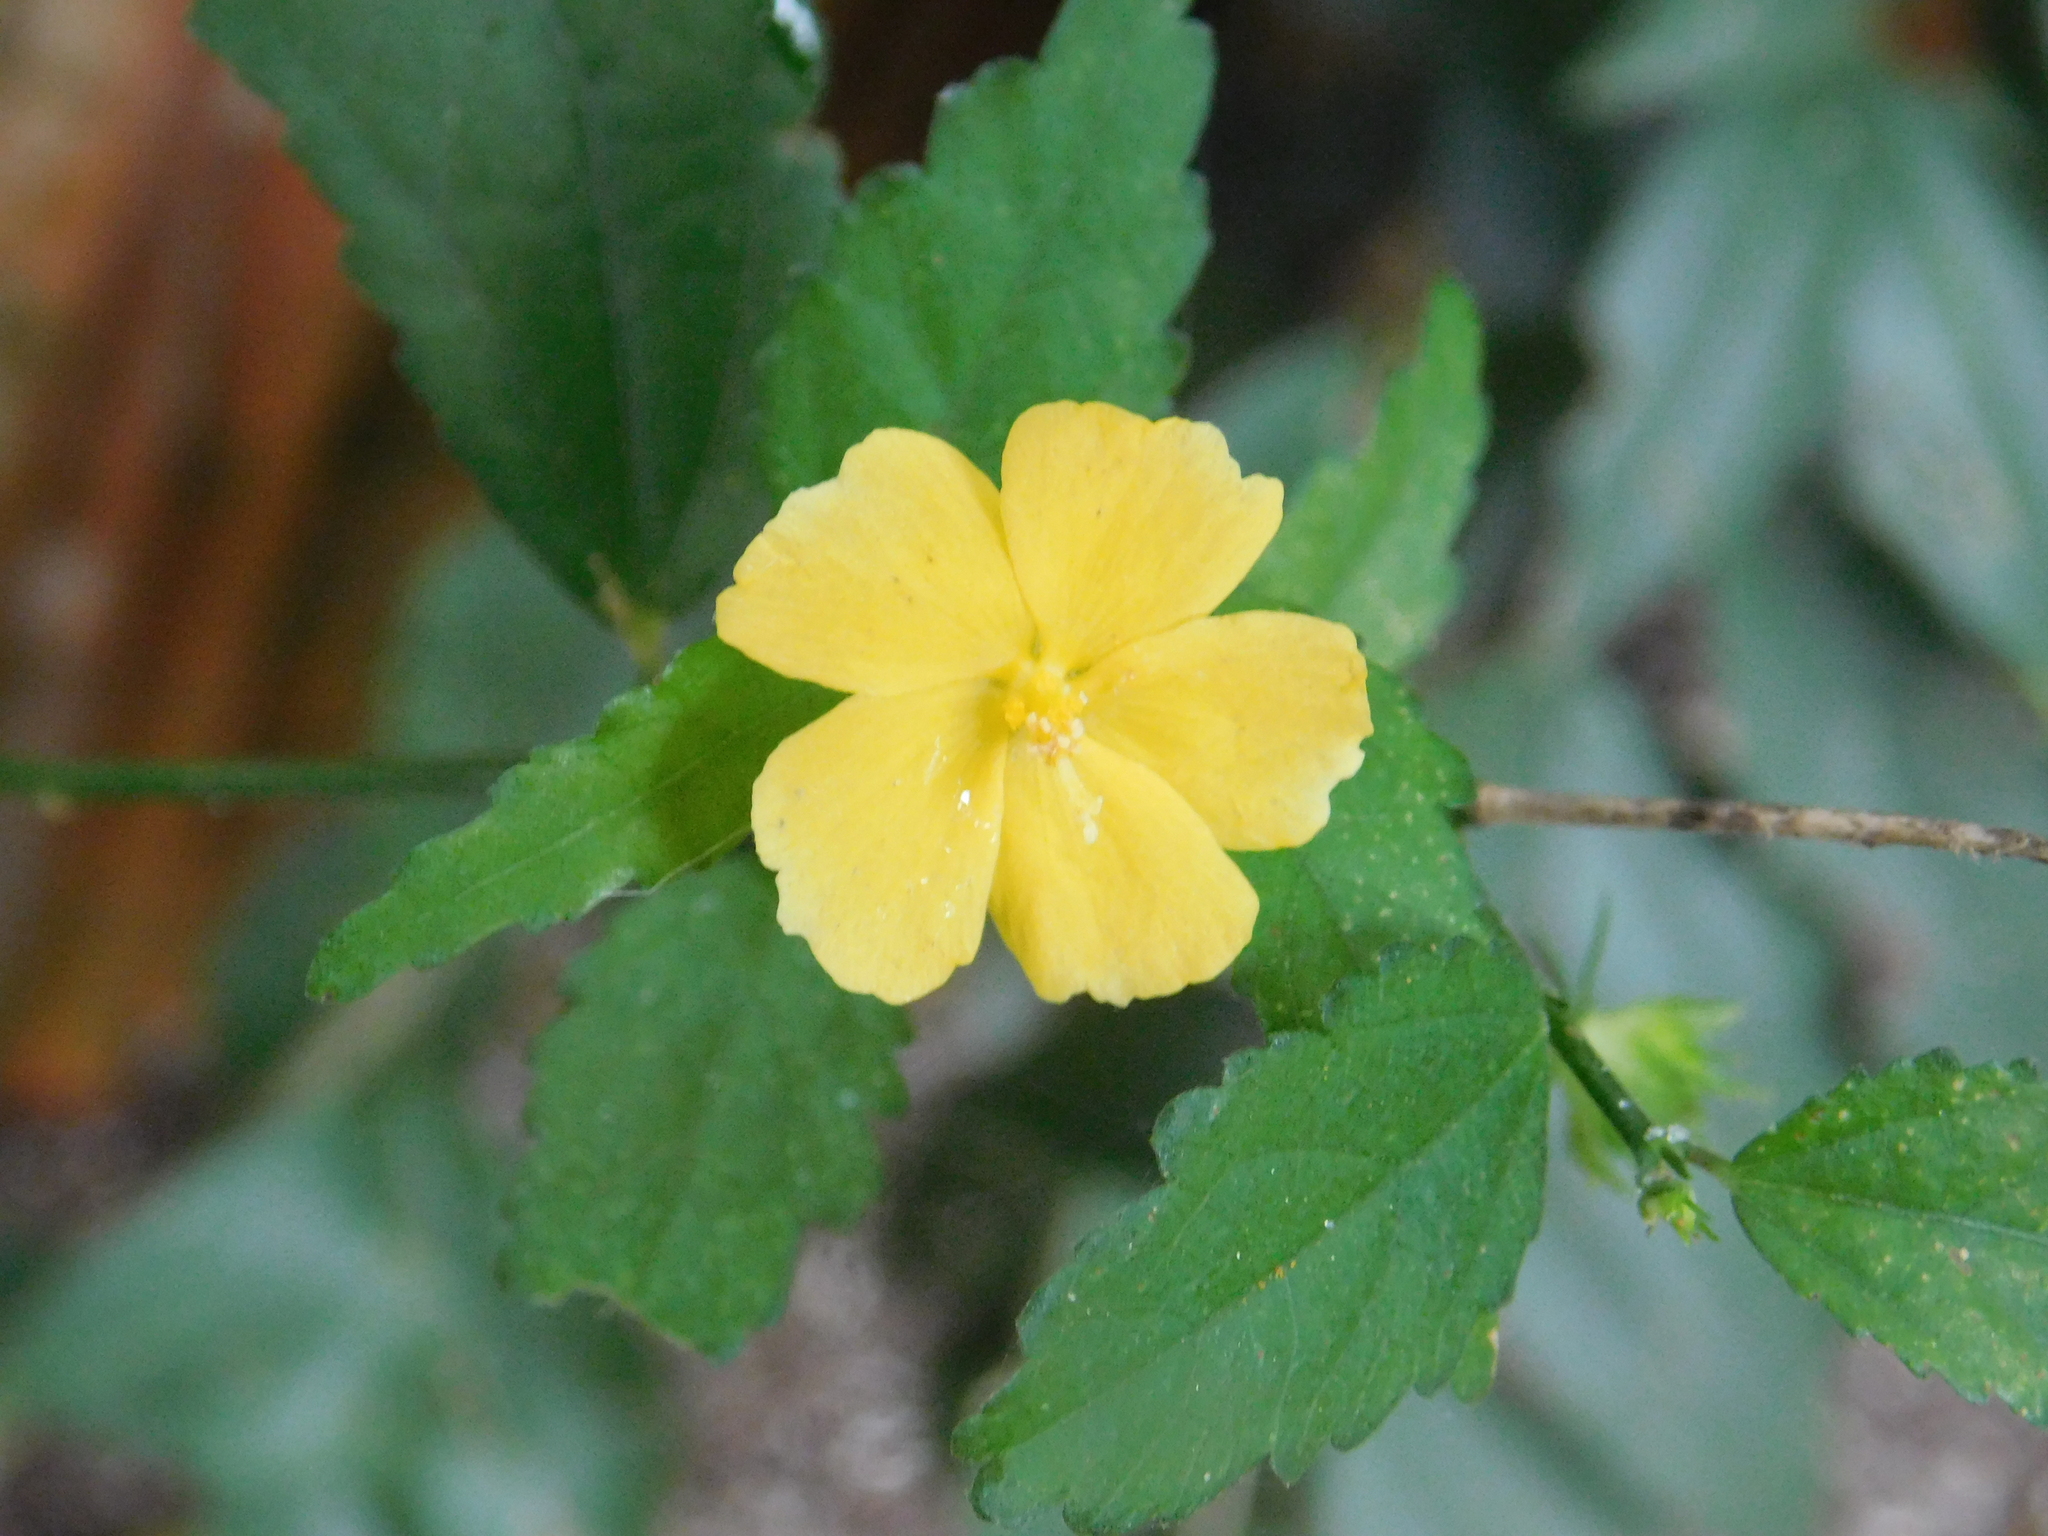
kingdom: Plantae
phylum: Tracheophyta
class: Magnoliopsida
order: Malvales
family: Malvaceae
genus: Pavonia
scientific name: Pavonia sepium
